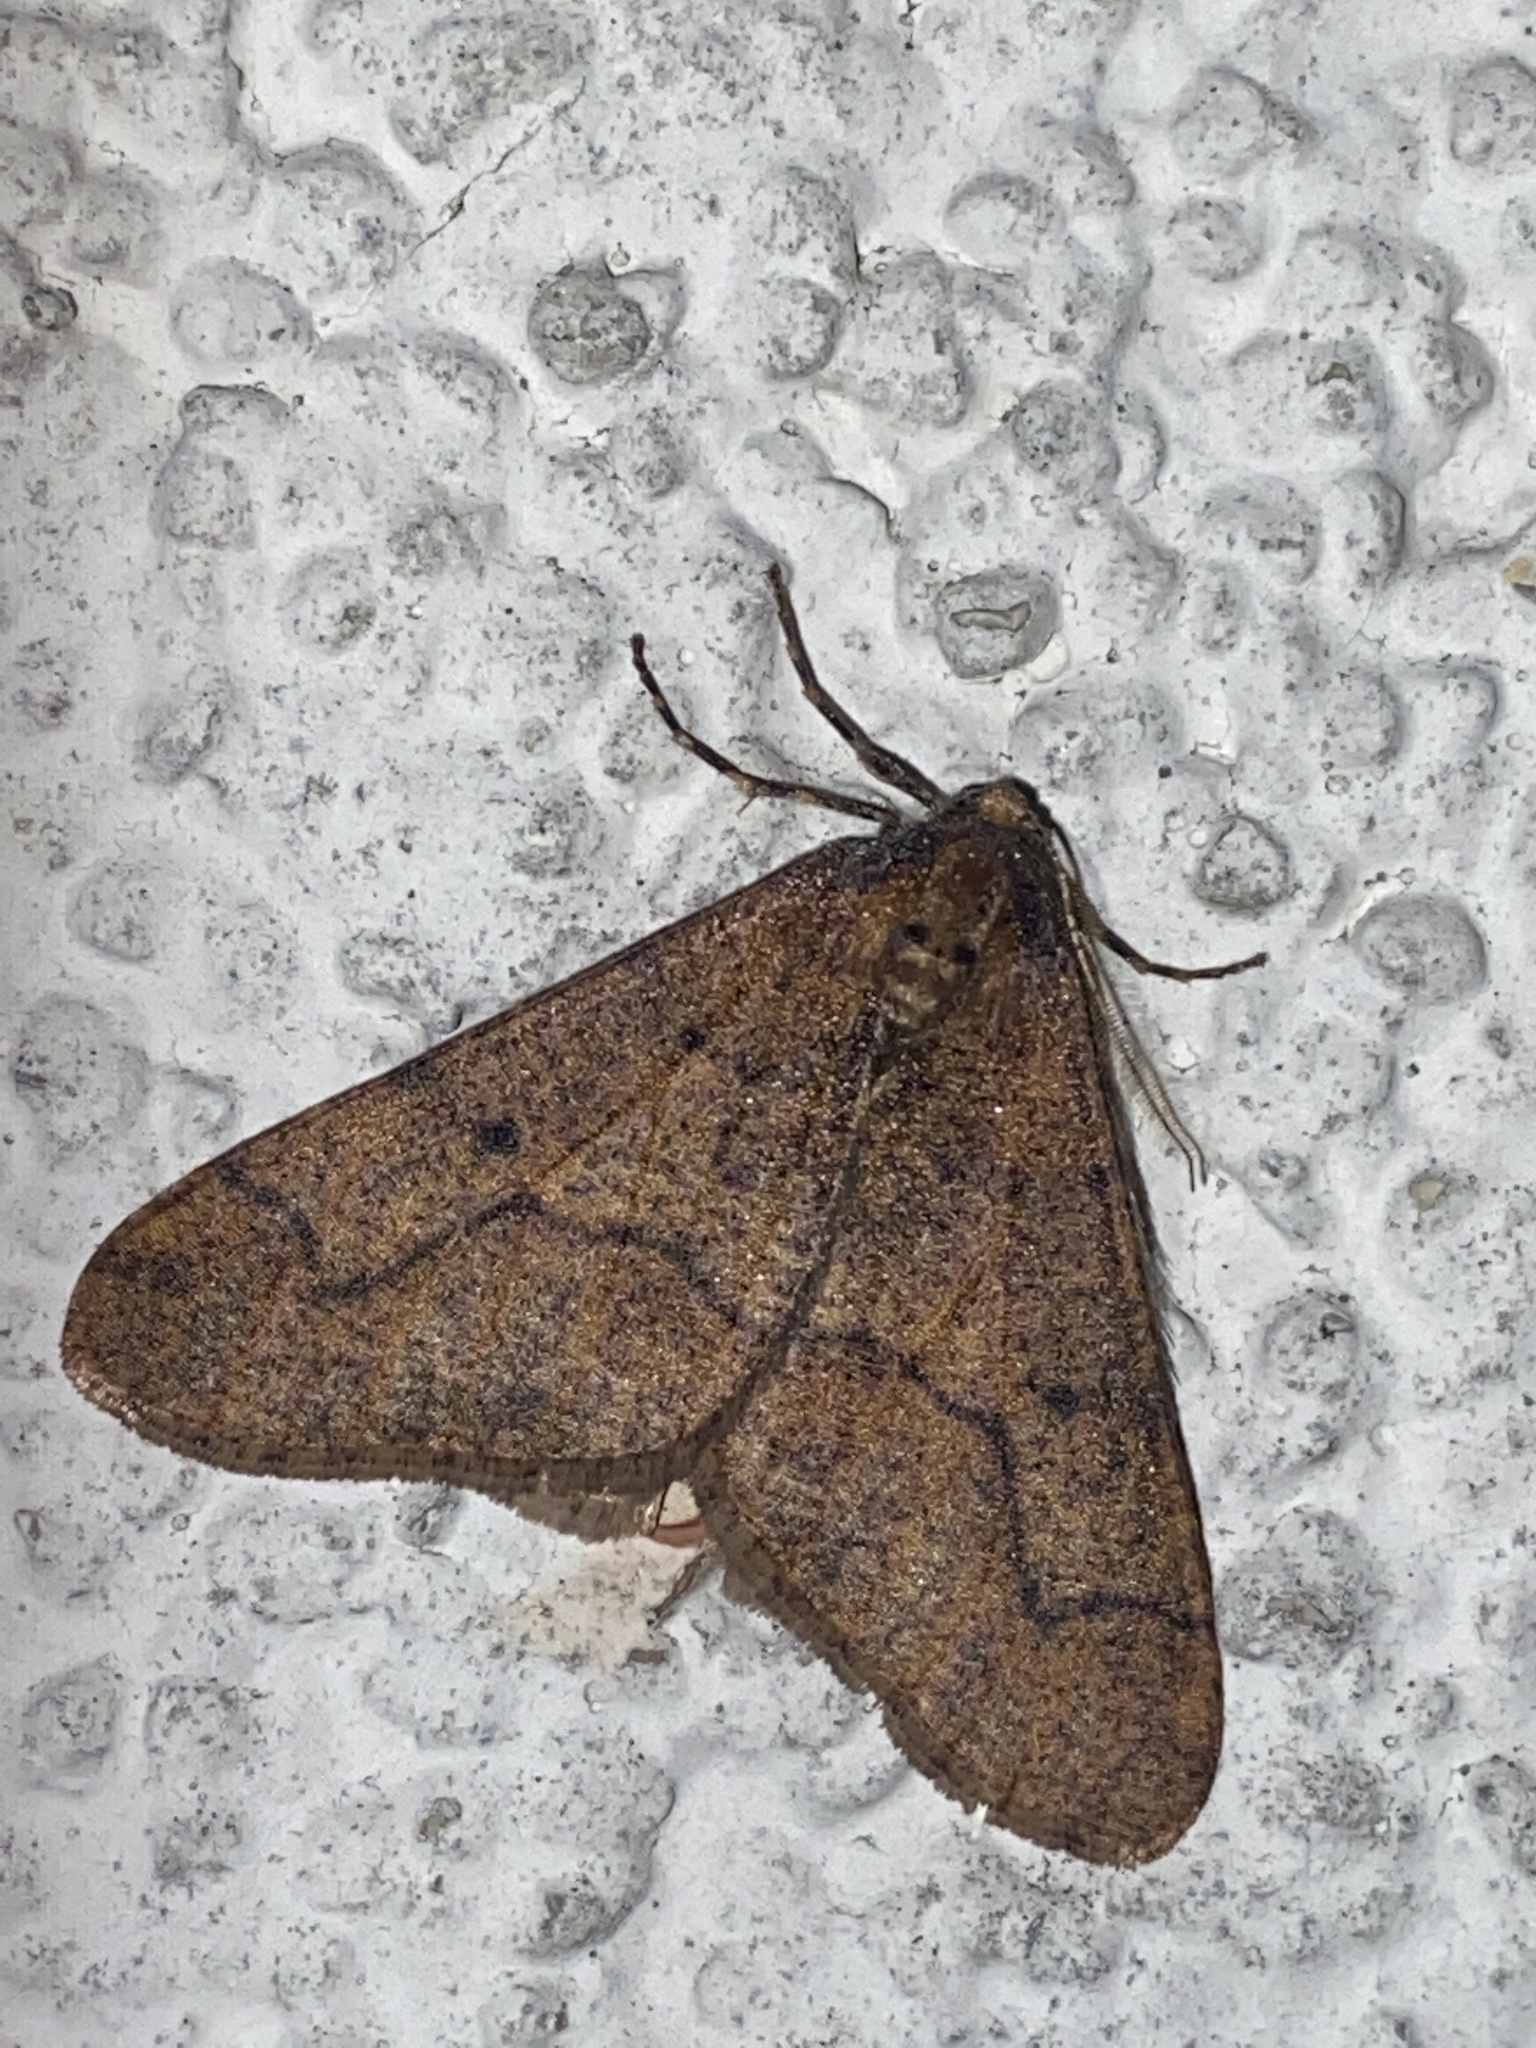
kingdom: Animalia
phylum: Arthropoda
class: Insecta
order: Lepidoptera
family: Geometridae
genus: Erannis
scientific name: Erannis defoliaria
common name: Mottled umber
